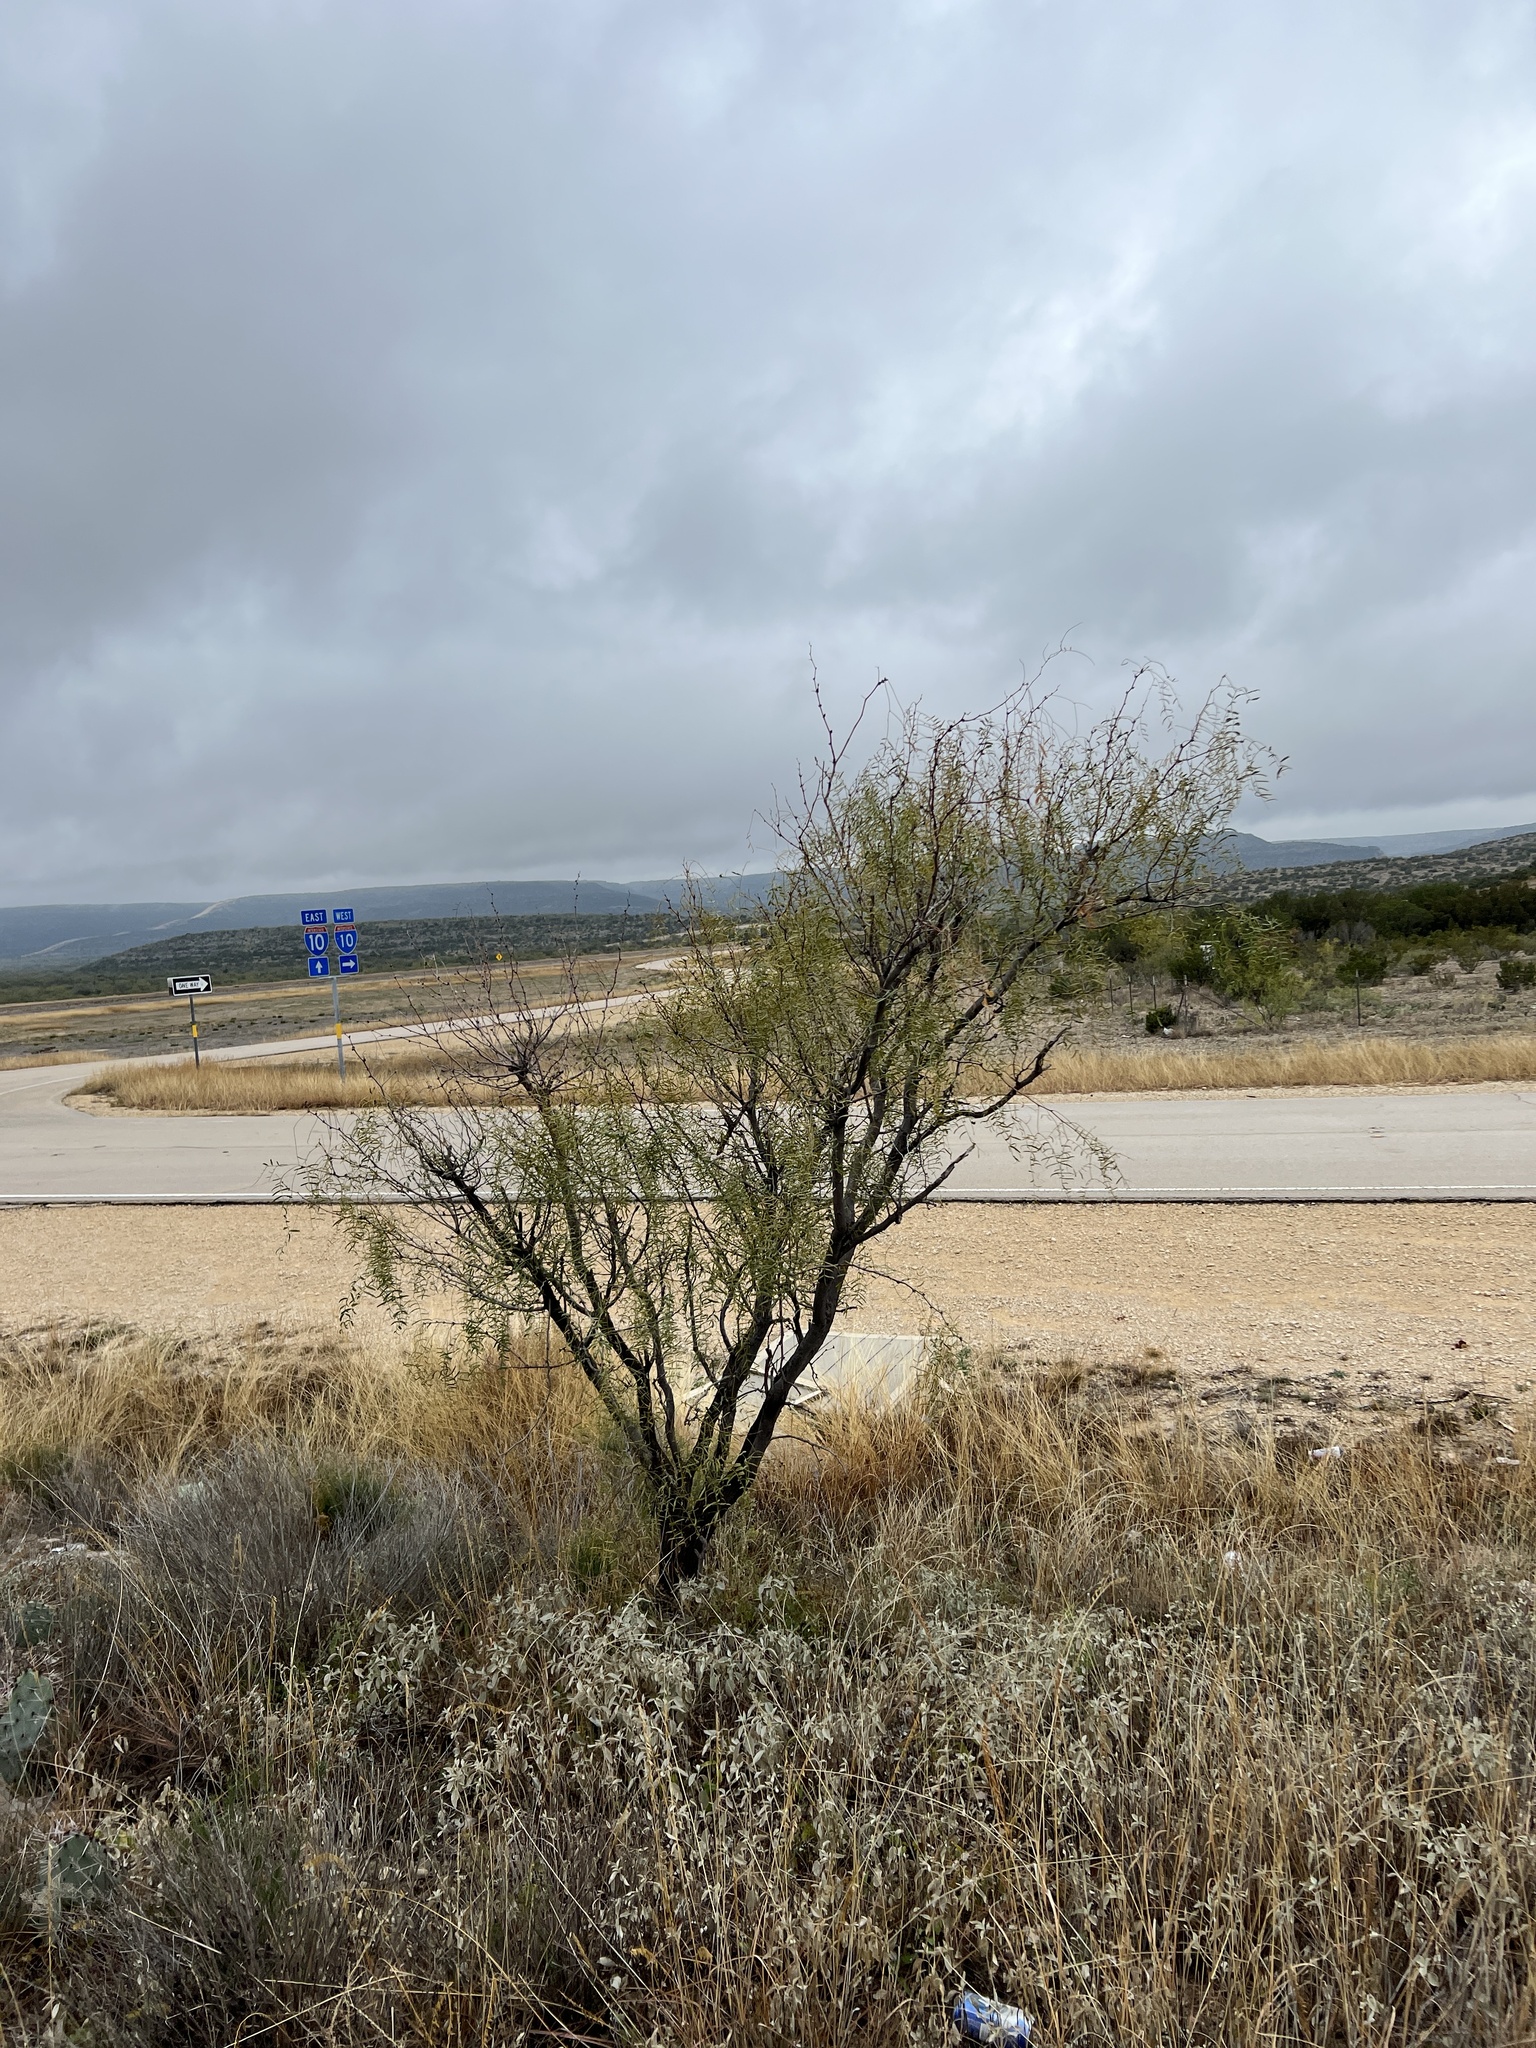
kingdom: Plantae
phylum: Tracheophyta
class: Magnoliopsida
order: Fabales
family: Fabaceae
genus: Prosopis
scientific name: Prosopis glandulosa
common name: Honey mesquite
